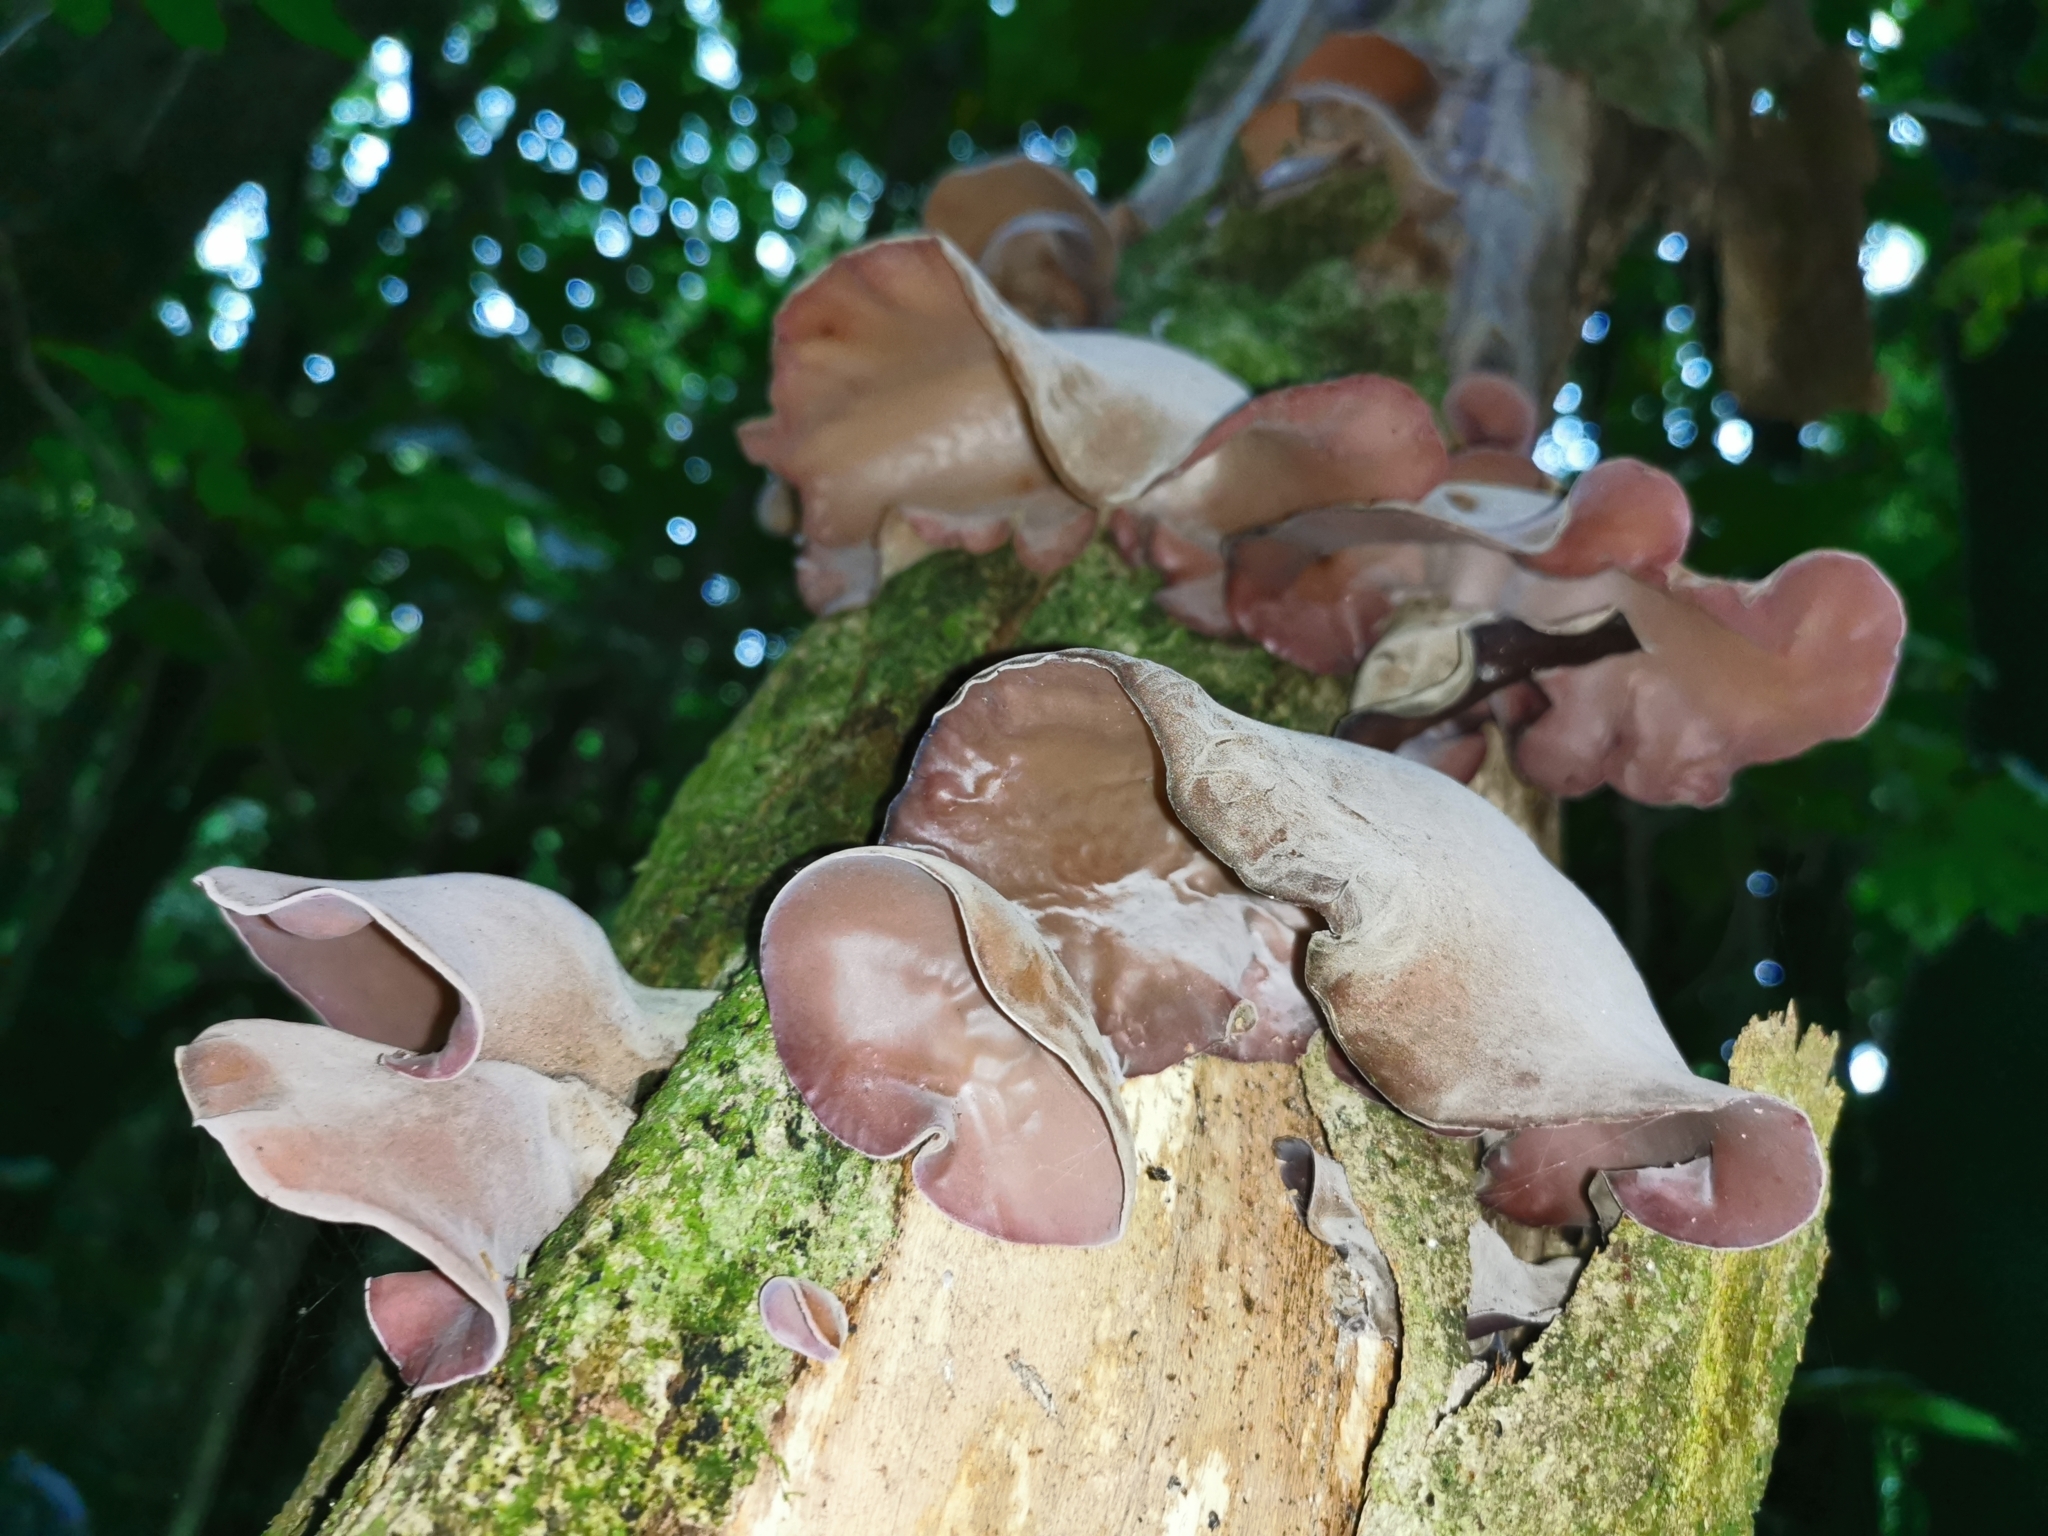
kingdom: Fungi
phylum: Basidiomycota
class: Agaricomycetes
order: Auriculariales
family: Auriculariaceae
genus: Auricularia
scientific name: Auricularia cornea
